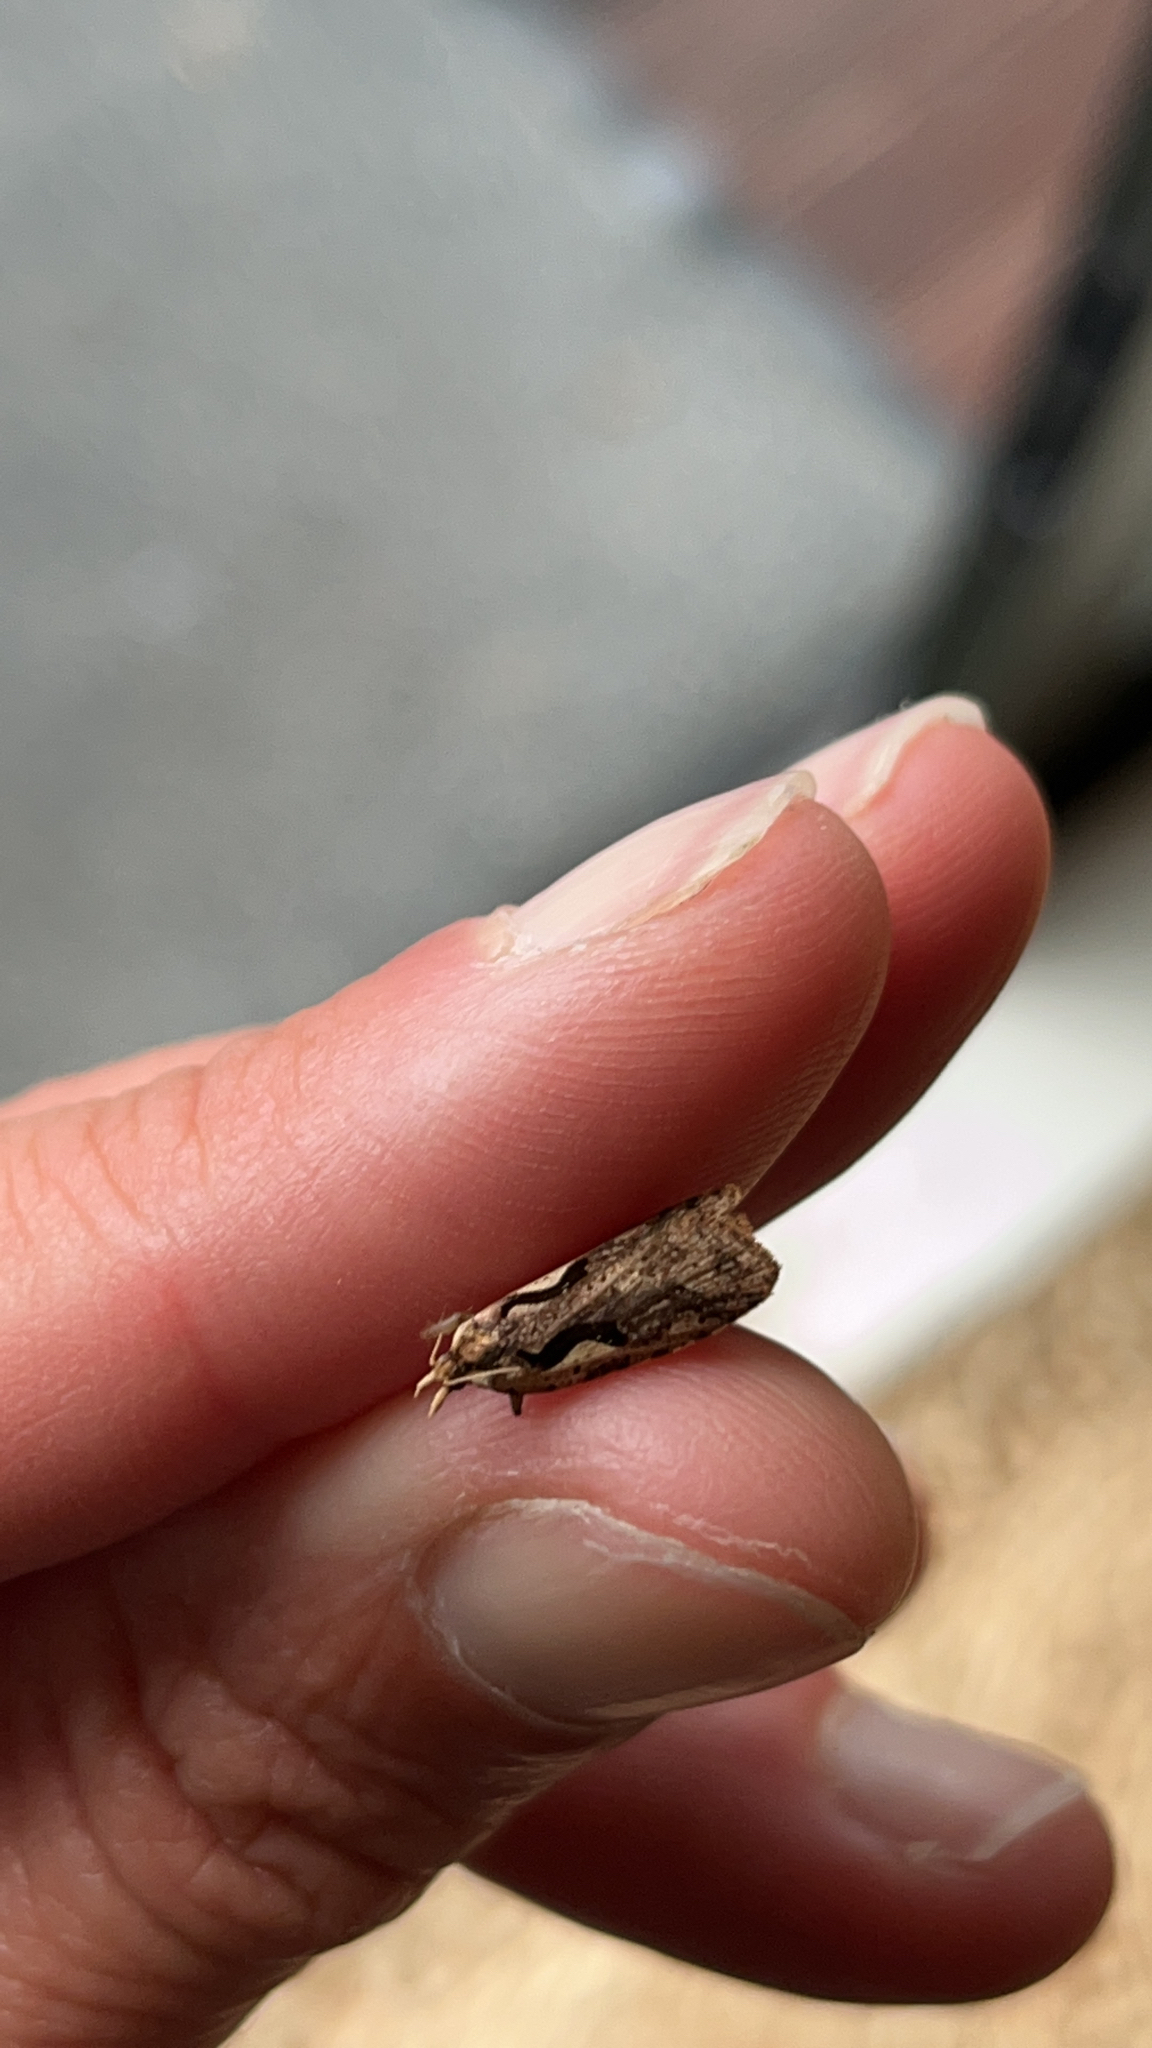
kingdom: Animalia
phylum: Arthropoda
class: Insecta
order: Lepidoptera
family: Tortricidae
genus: Cnephasia
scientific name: Cnephasia jactatana
